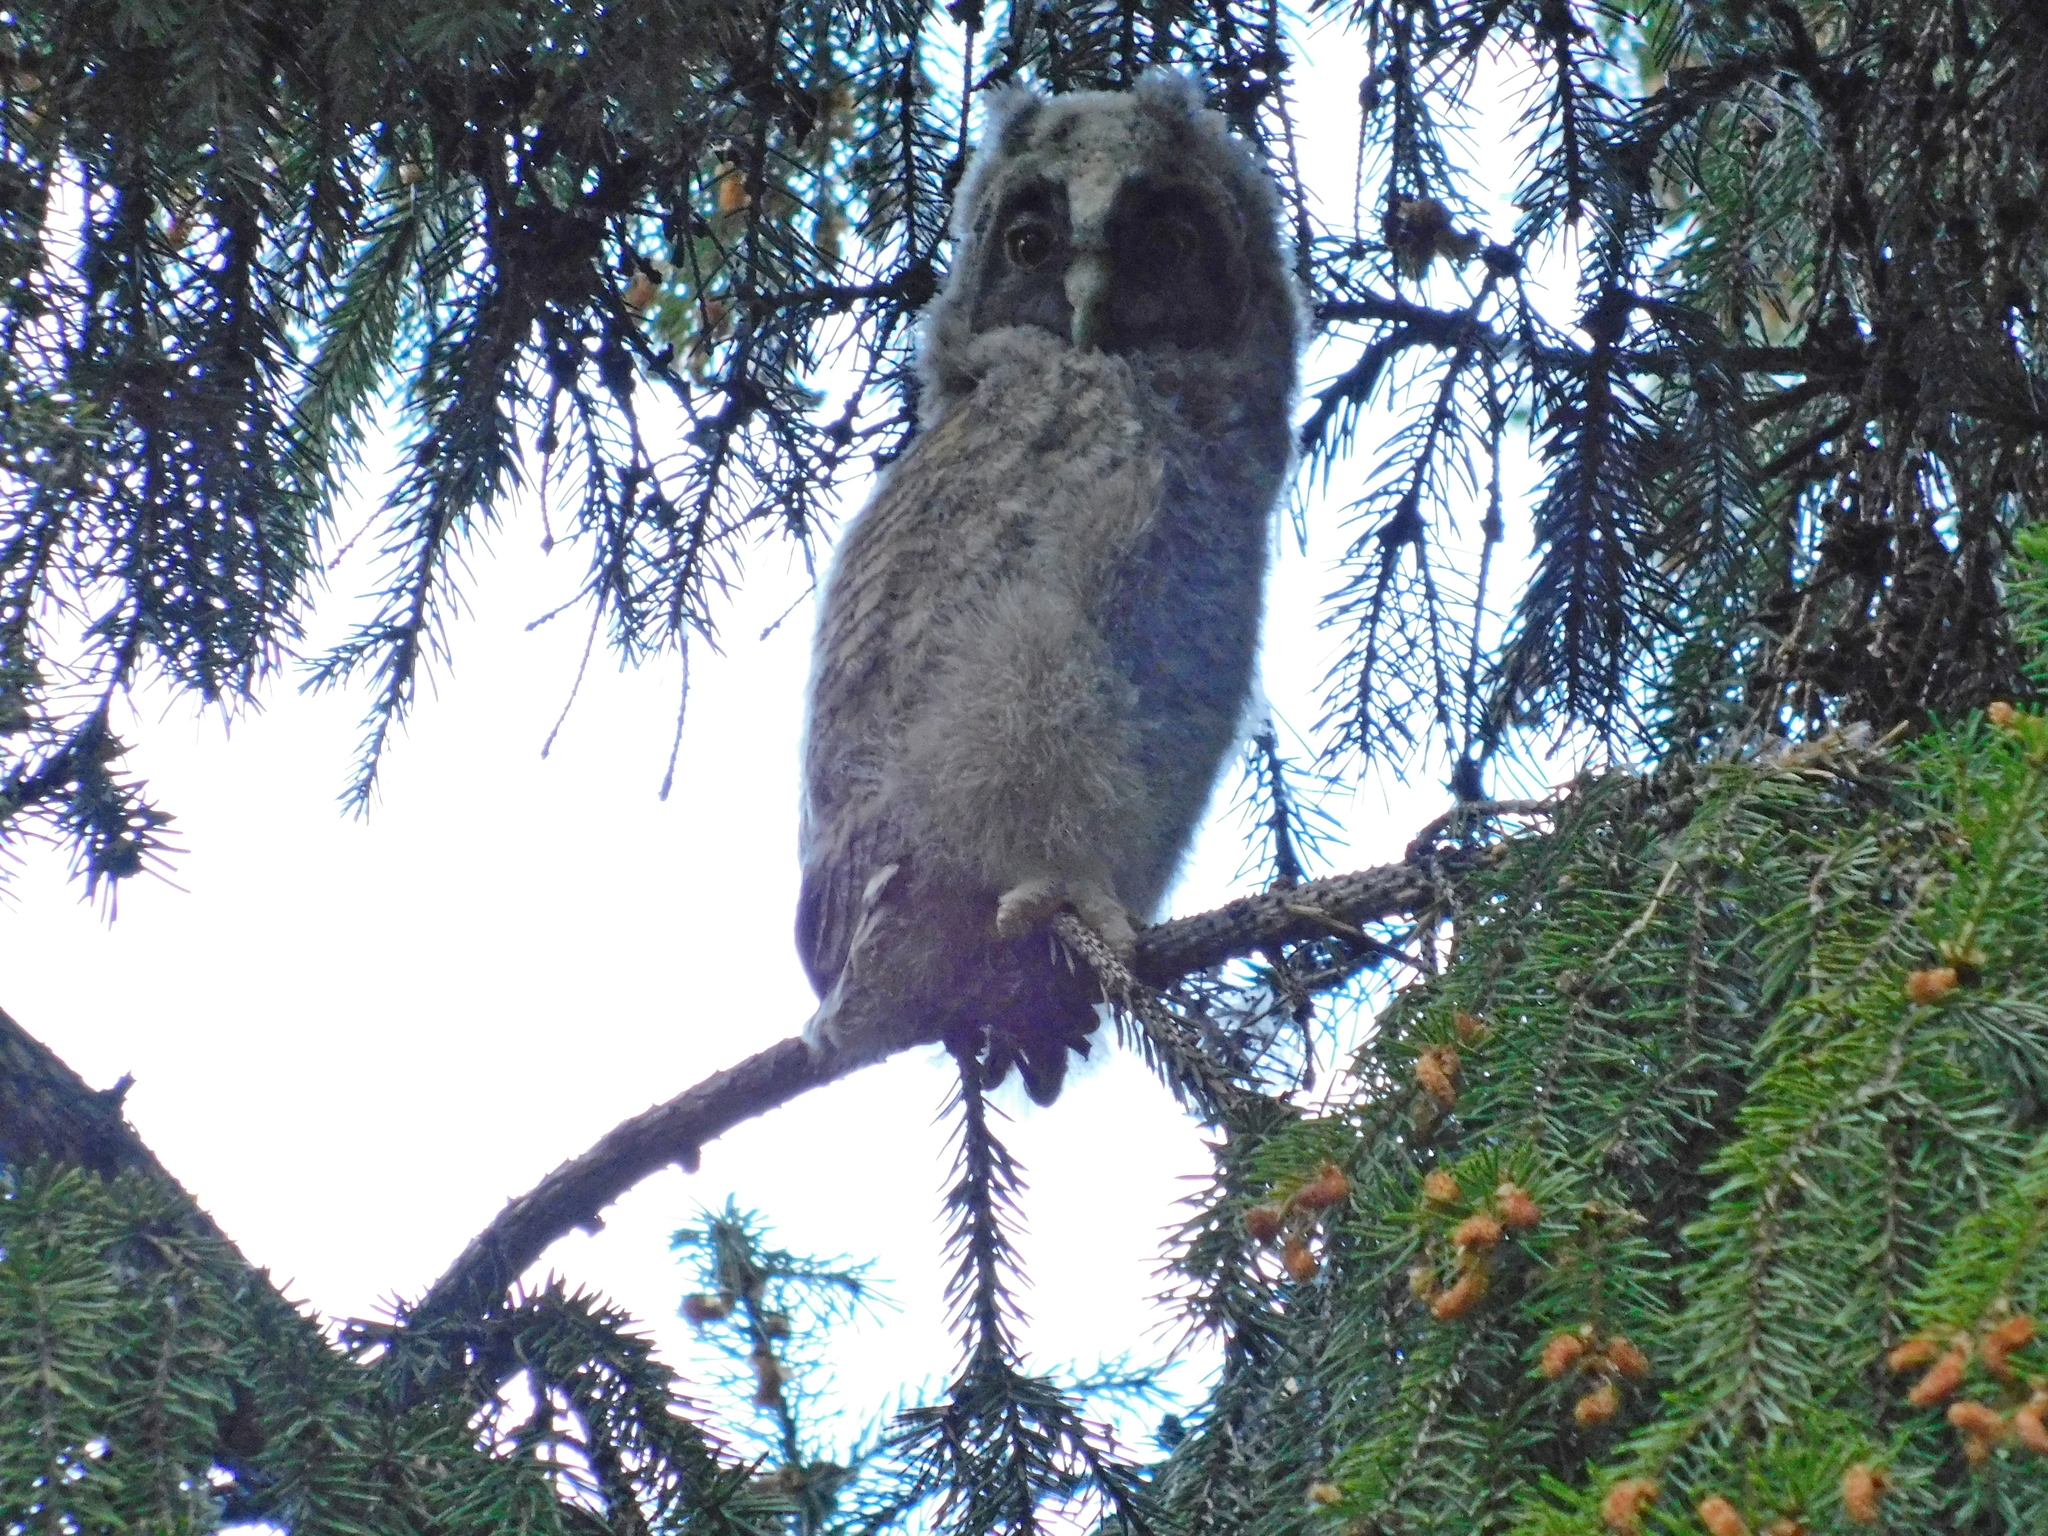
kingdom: Animalia
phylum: Chordata
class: Aves
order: Strigiformes
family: Strigidae
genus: Asio
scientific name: Asio otus
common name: Long-eared owl
